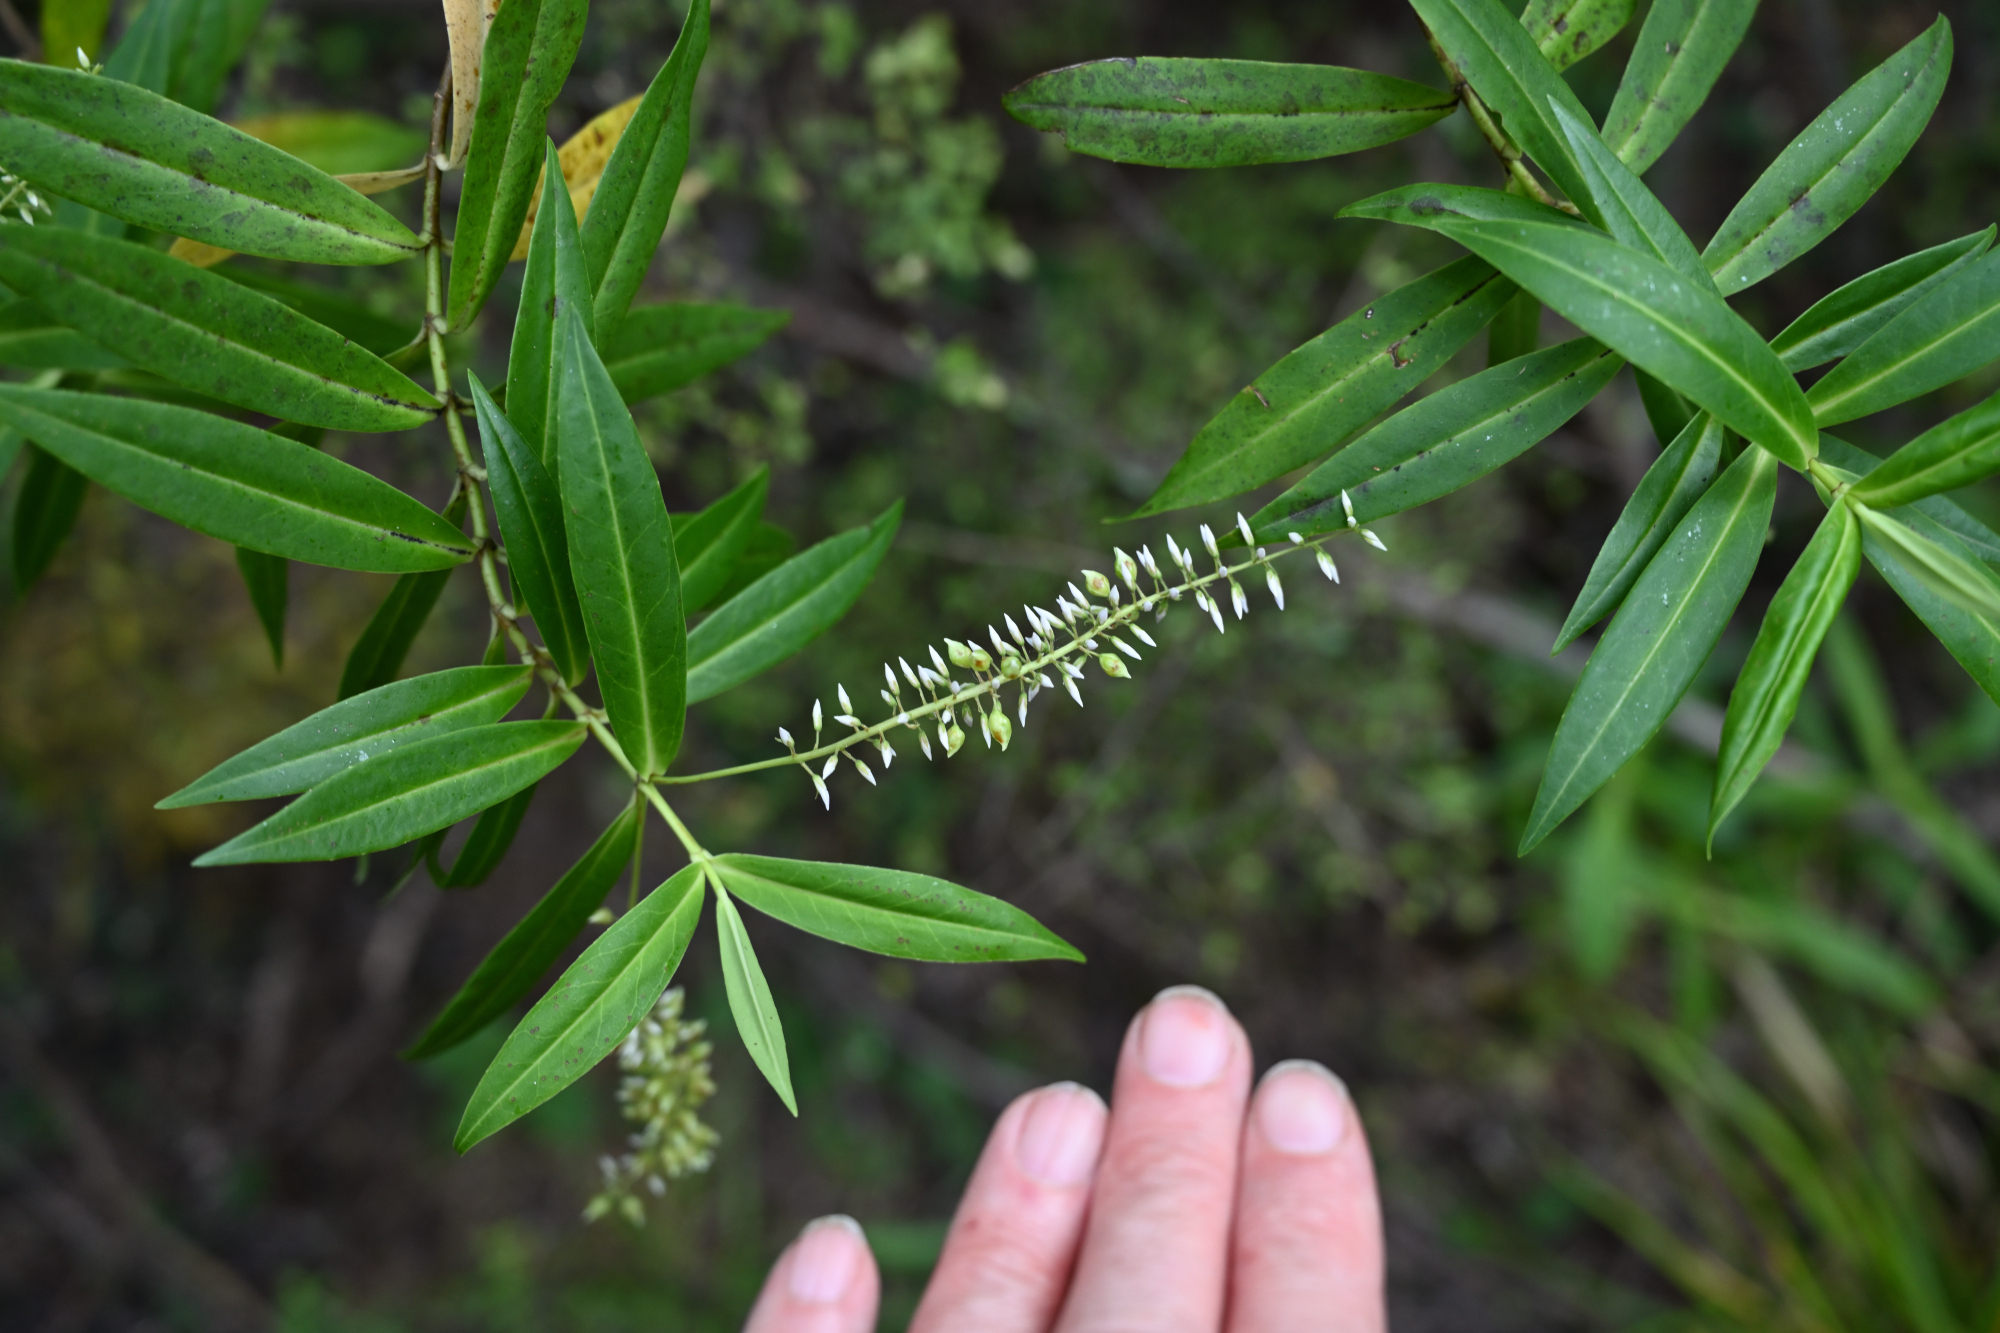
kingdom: Plantae
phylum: Tracheophyta
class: Magnoliopsida
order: Lamiales
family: Plantaginaceae
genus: Veronica
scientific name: Veronica salicifolia
